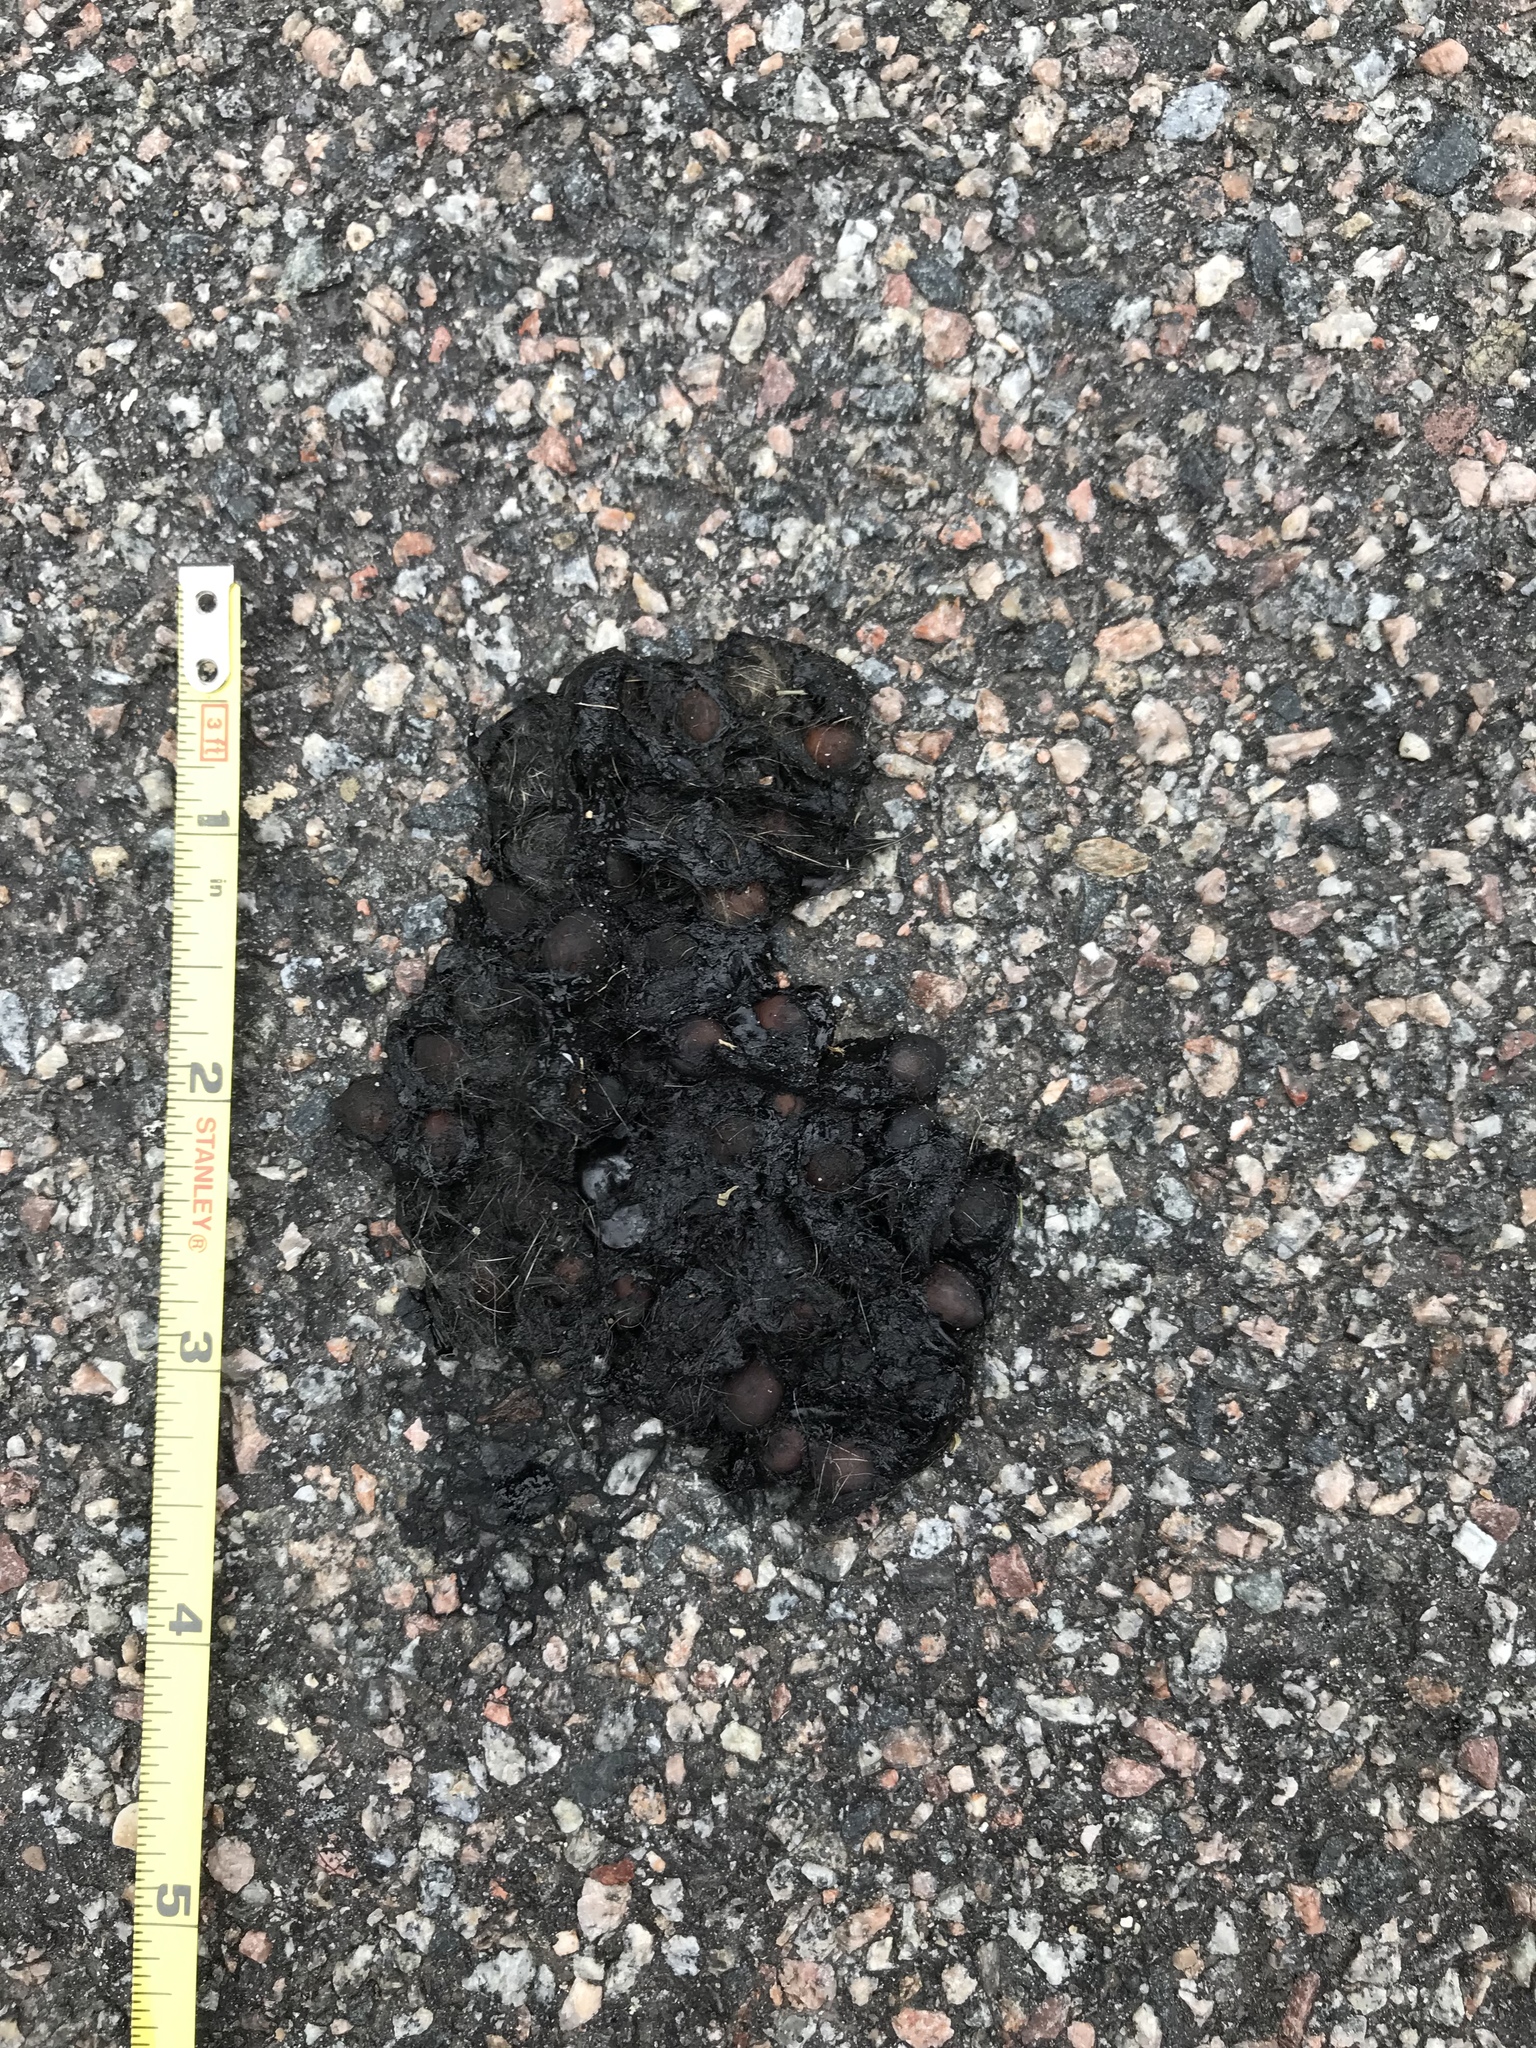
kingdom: Animalia
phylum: Chordata
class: Mammalia
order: Carnivora
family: Canidae
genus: Vulpes
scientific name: Vulpes vulpes
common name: Red fox
